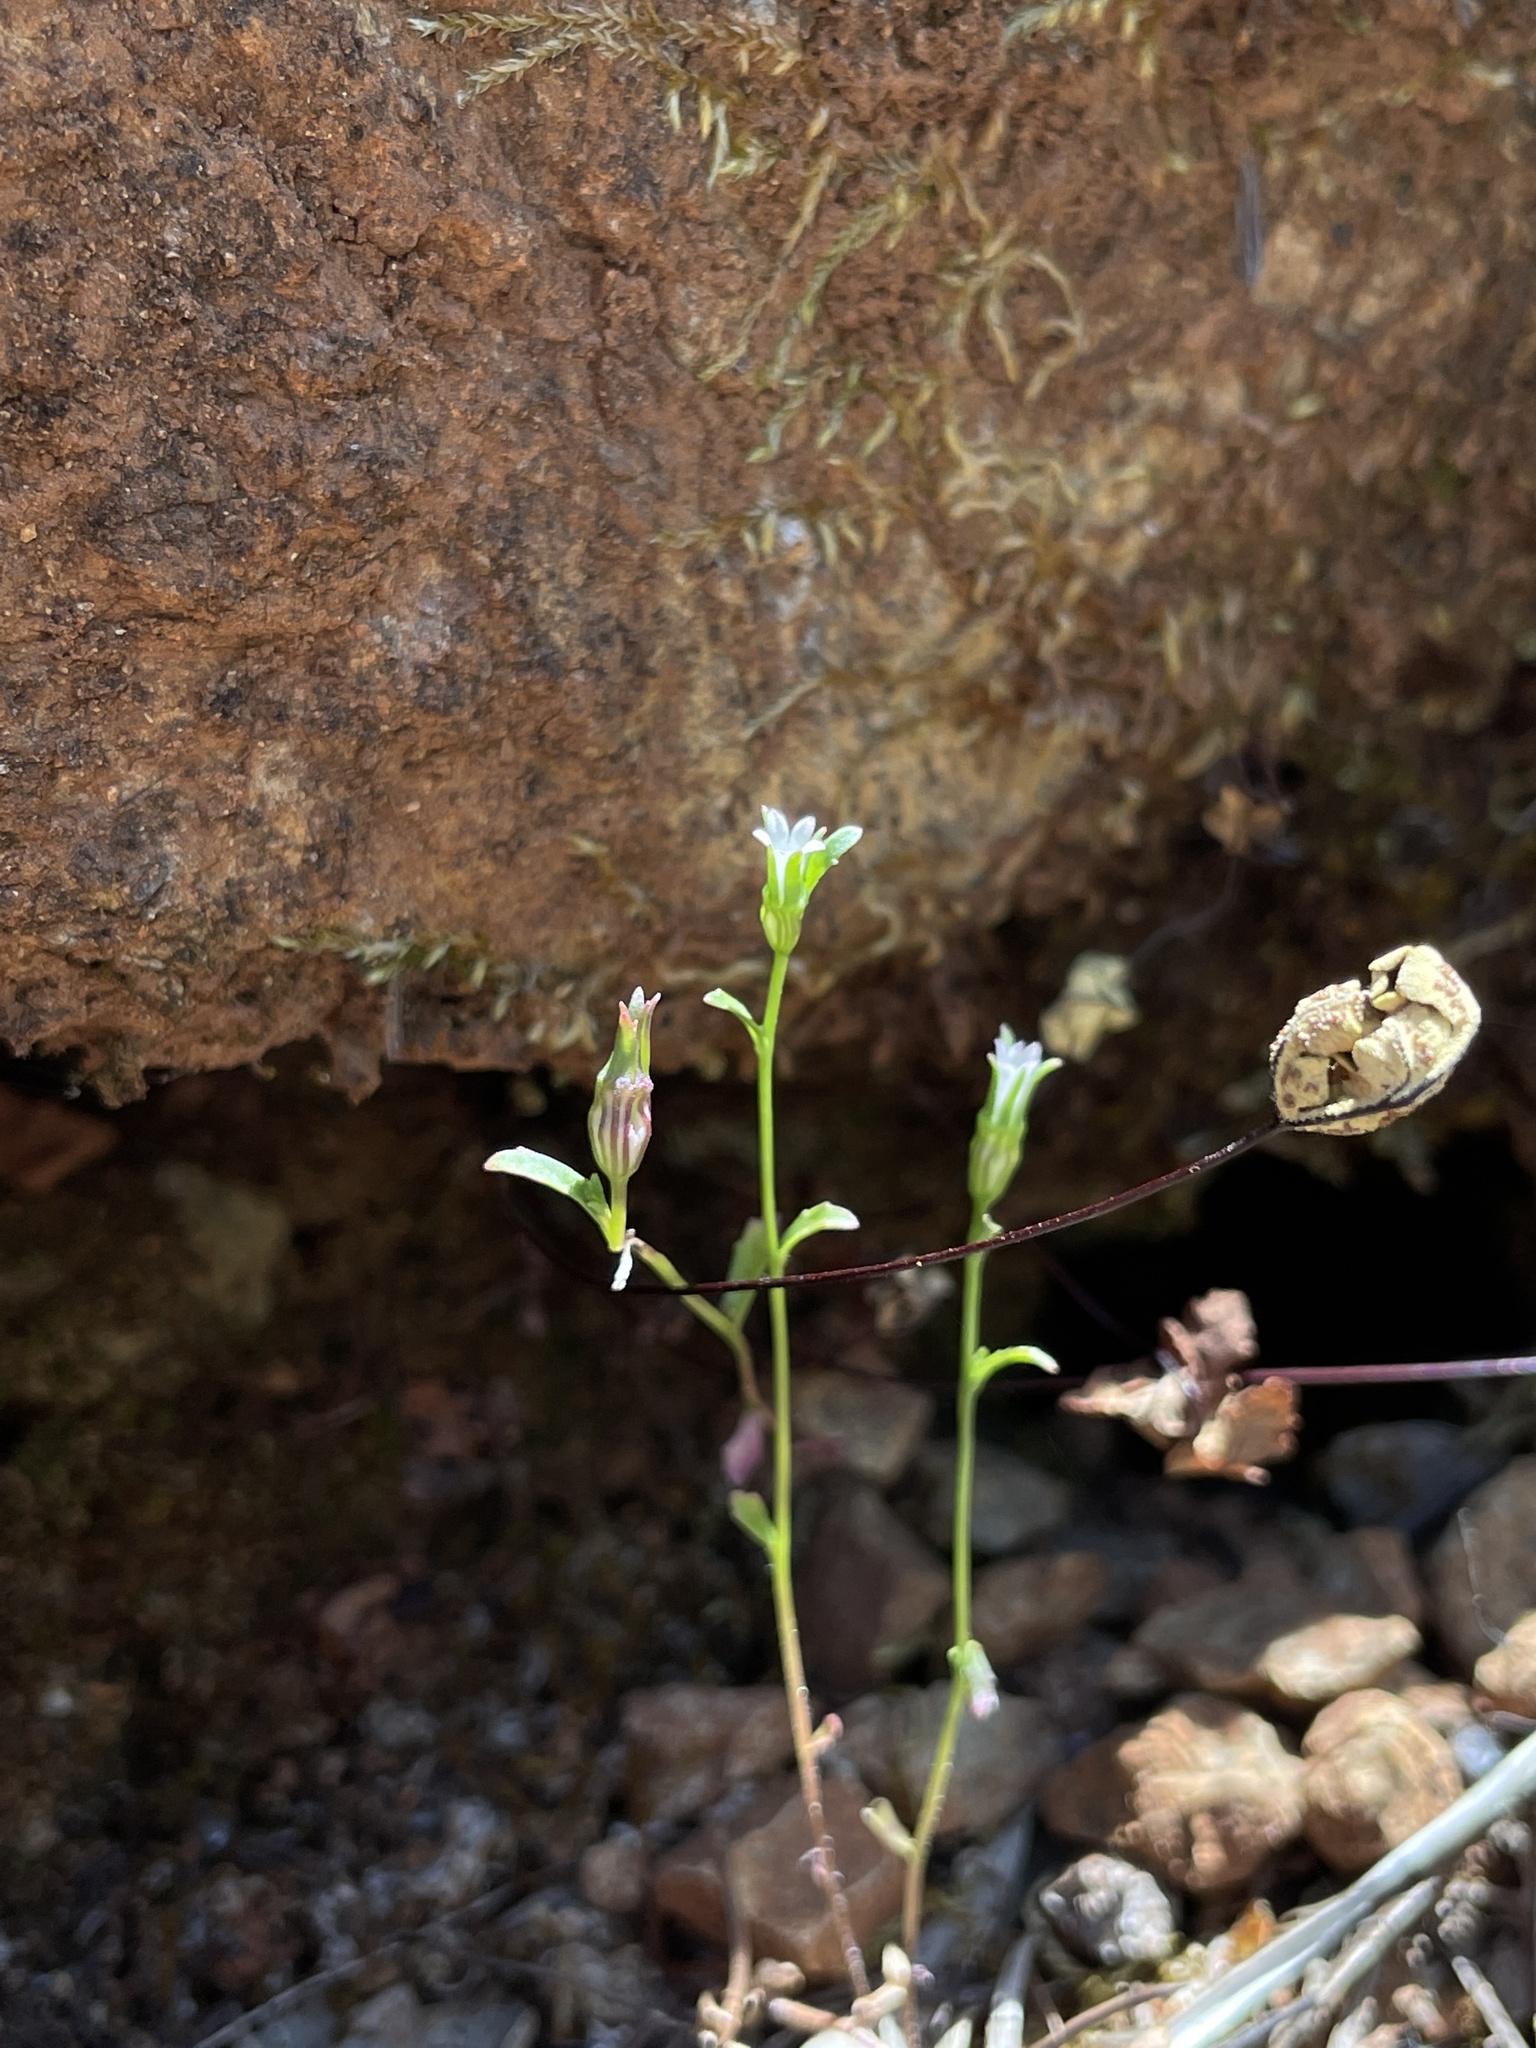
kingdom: Plantae
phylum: Tracheophyta
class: Magnoliopsida
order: Asterales
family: Campanulaceae
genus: Ravenella
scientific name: Ravenella griffinii
